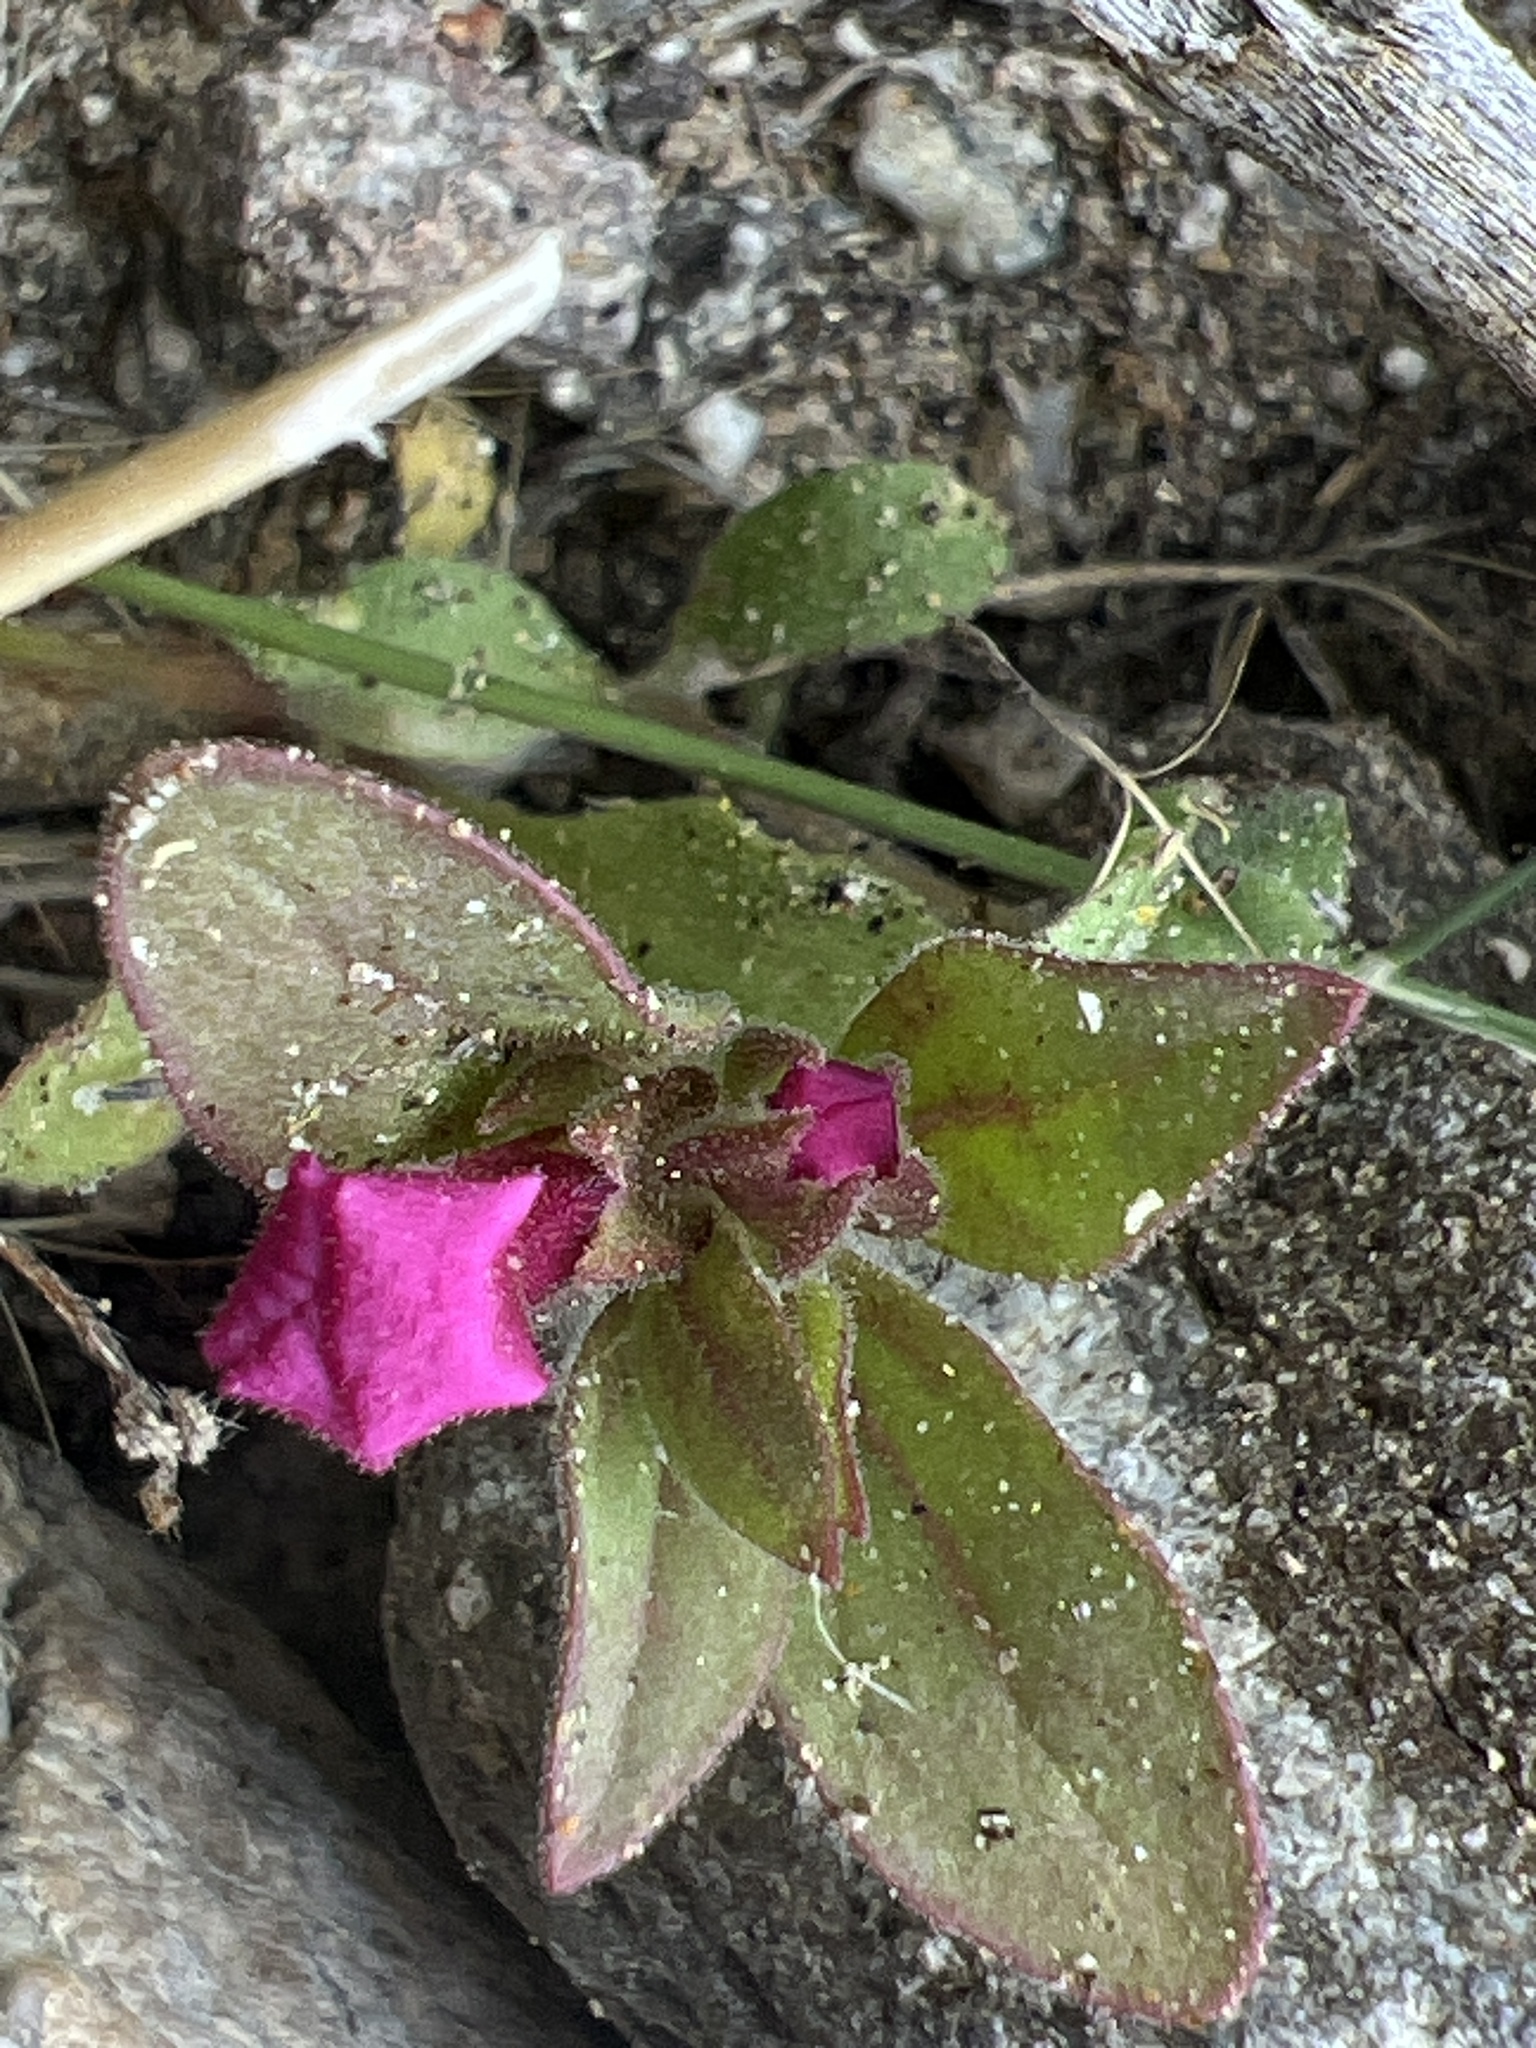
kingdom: Plantae
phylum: Tracheophyta
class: Magnoliopsida
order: Lamiales
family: Phrymaceae
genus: Diplacus
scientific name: Diplacus bigelovii
